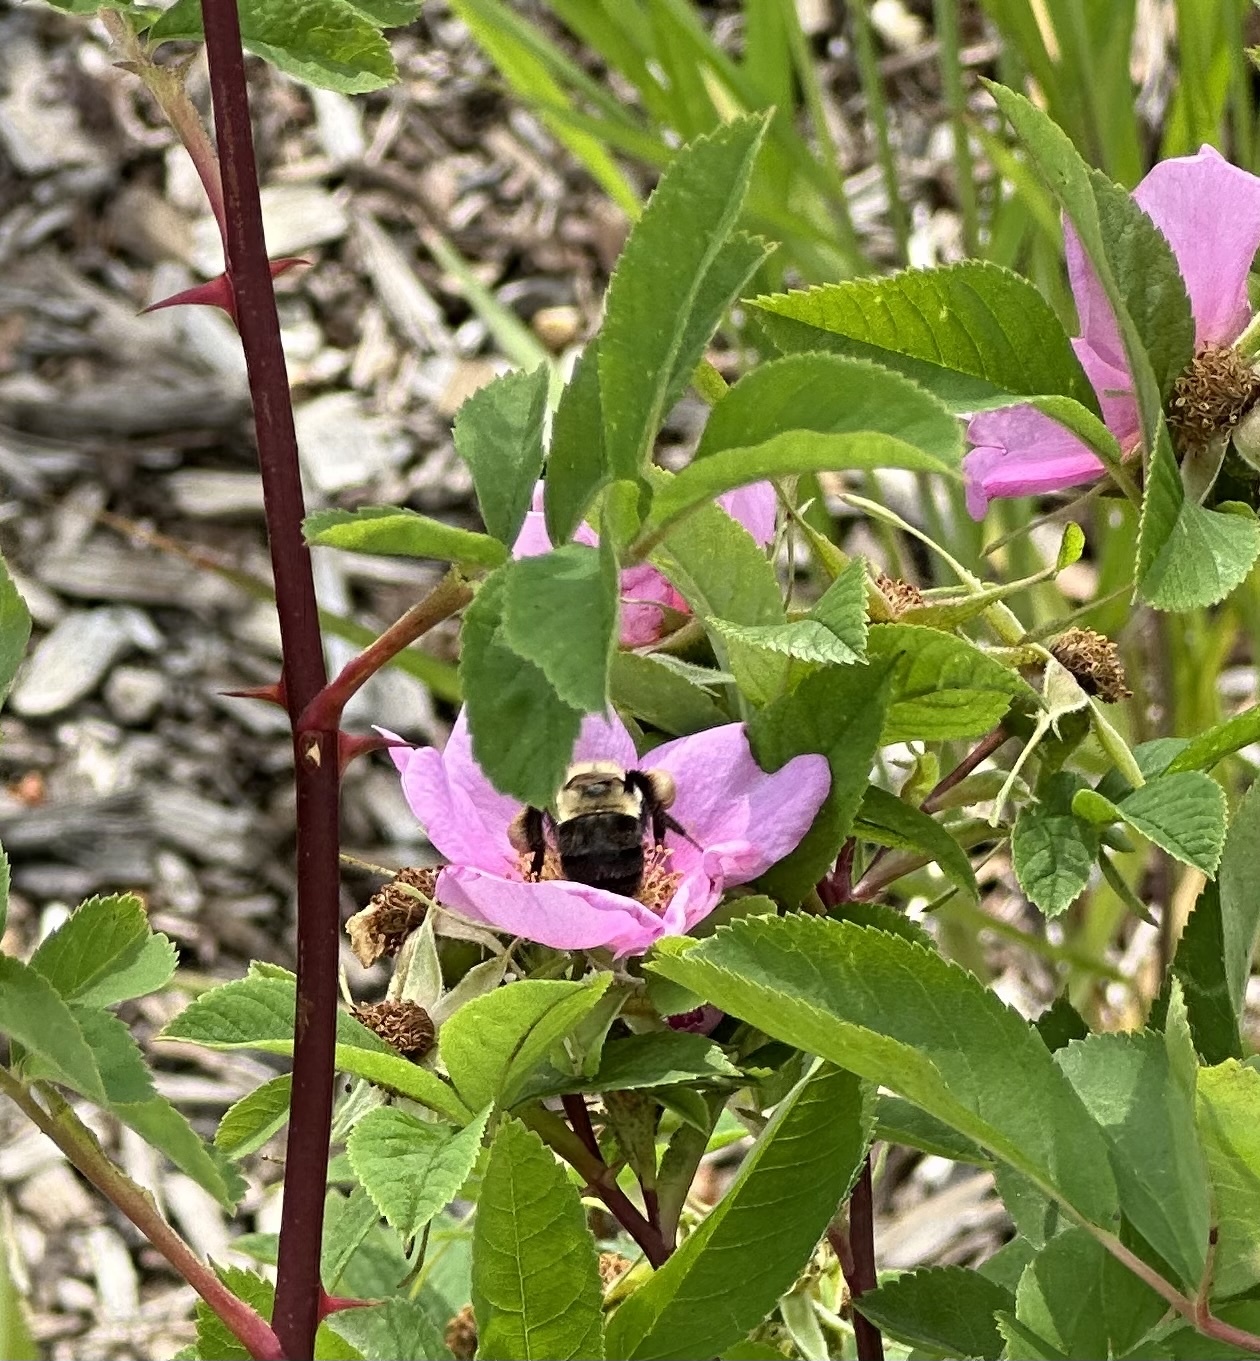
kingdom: Animalia
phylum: Arthropoda
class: Insecta
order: Hymenoptera
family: Apidae
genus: Bombus
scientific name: Bombus impatiens
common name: Common eastern bumble bee
